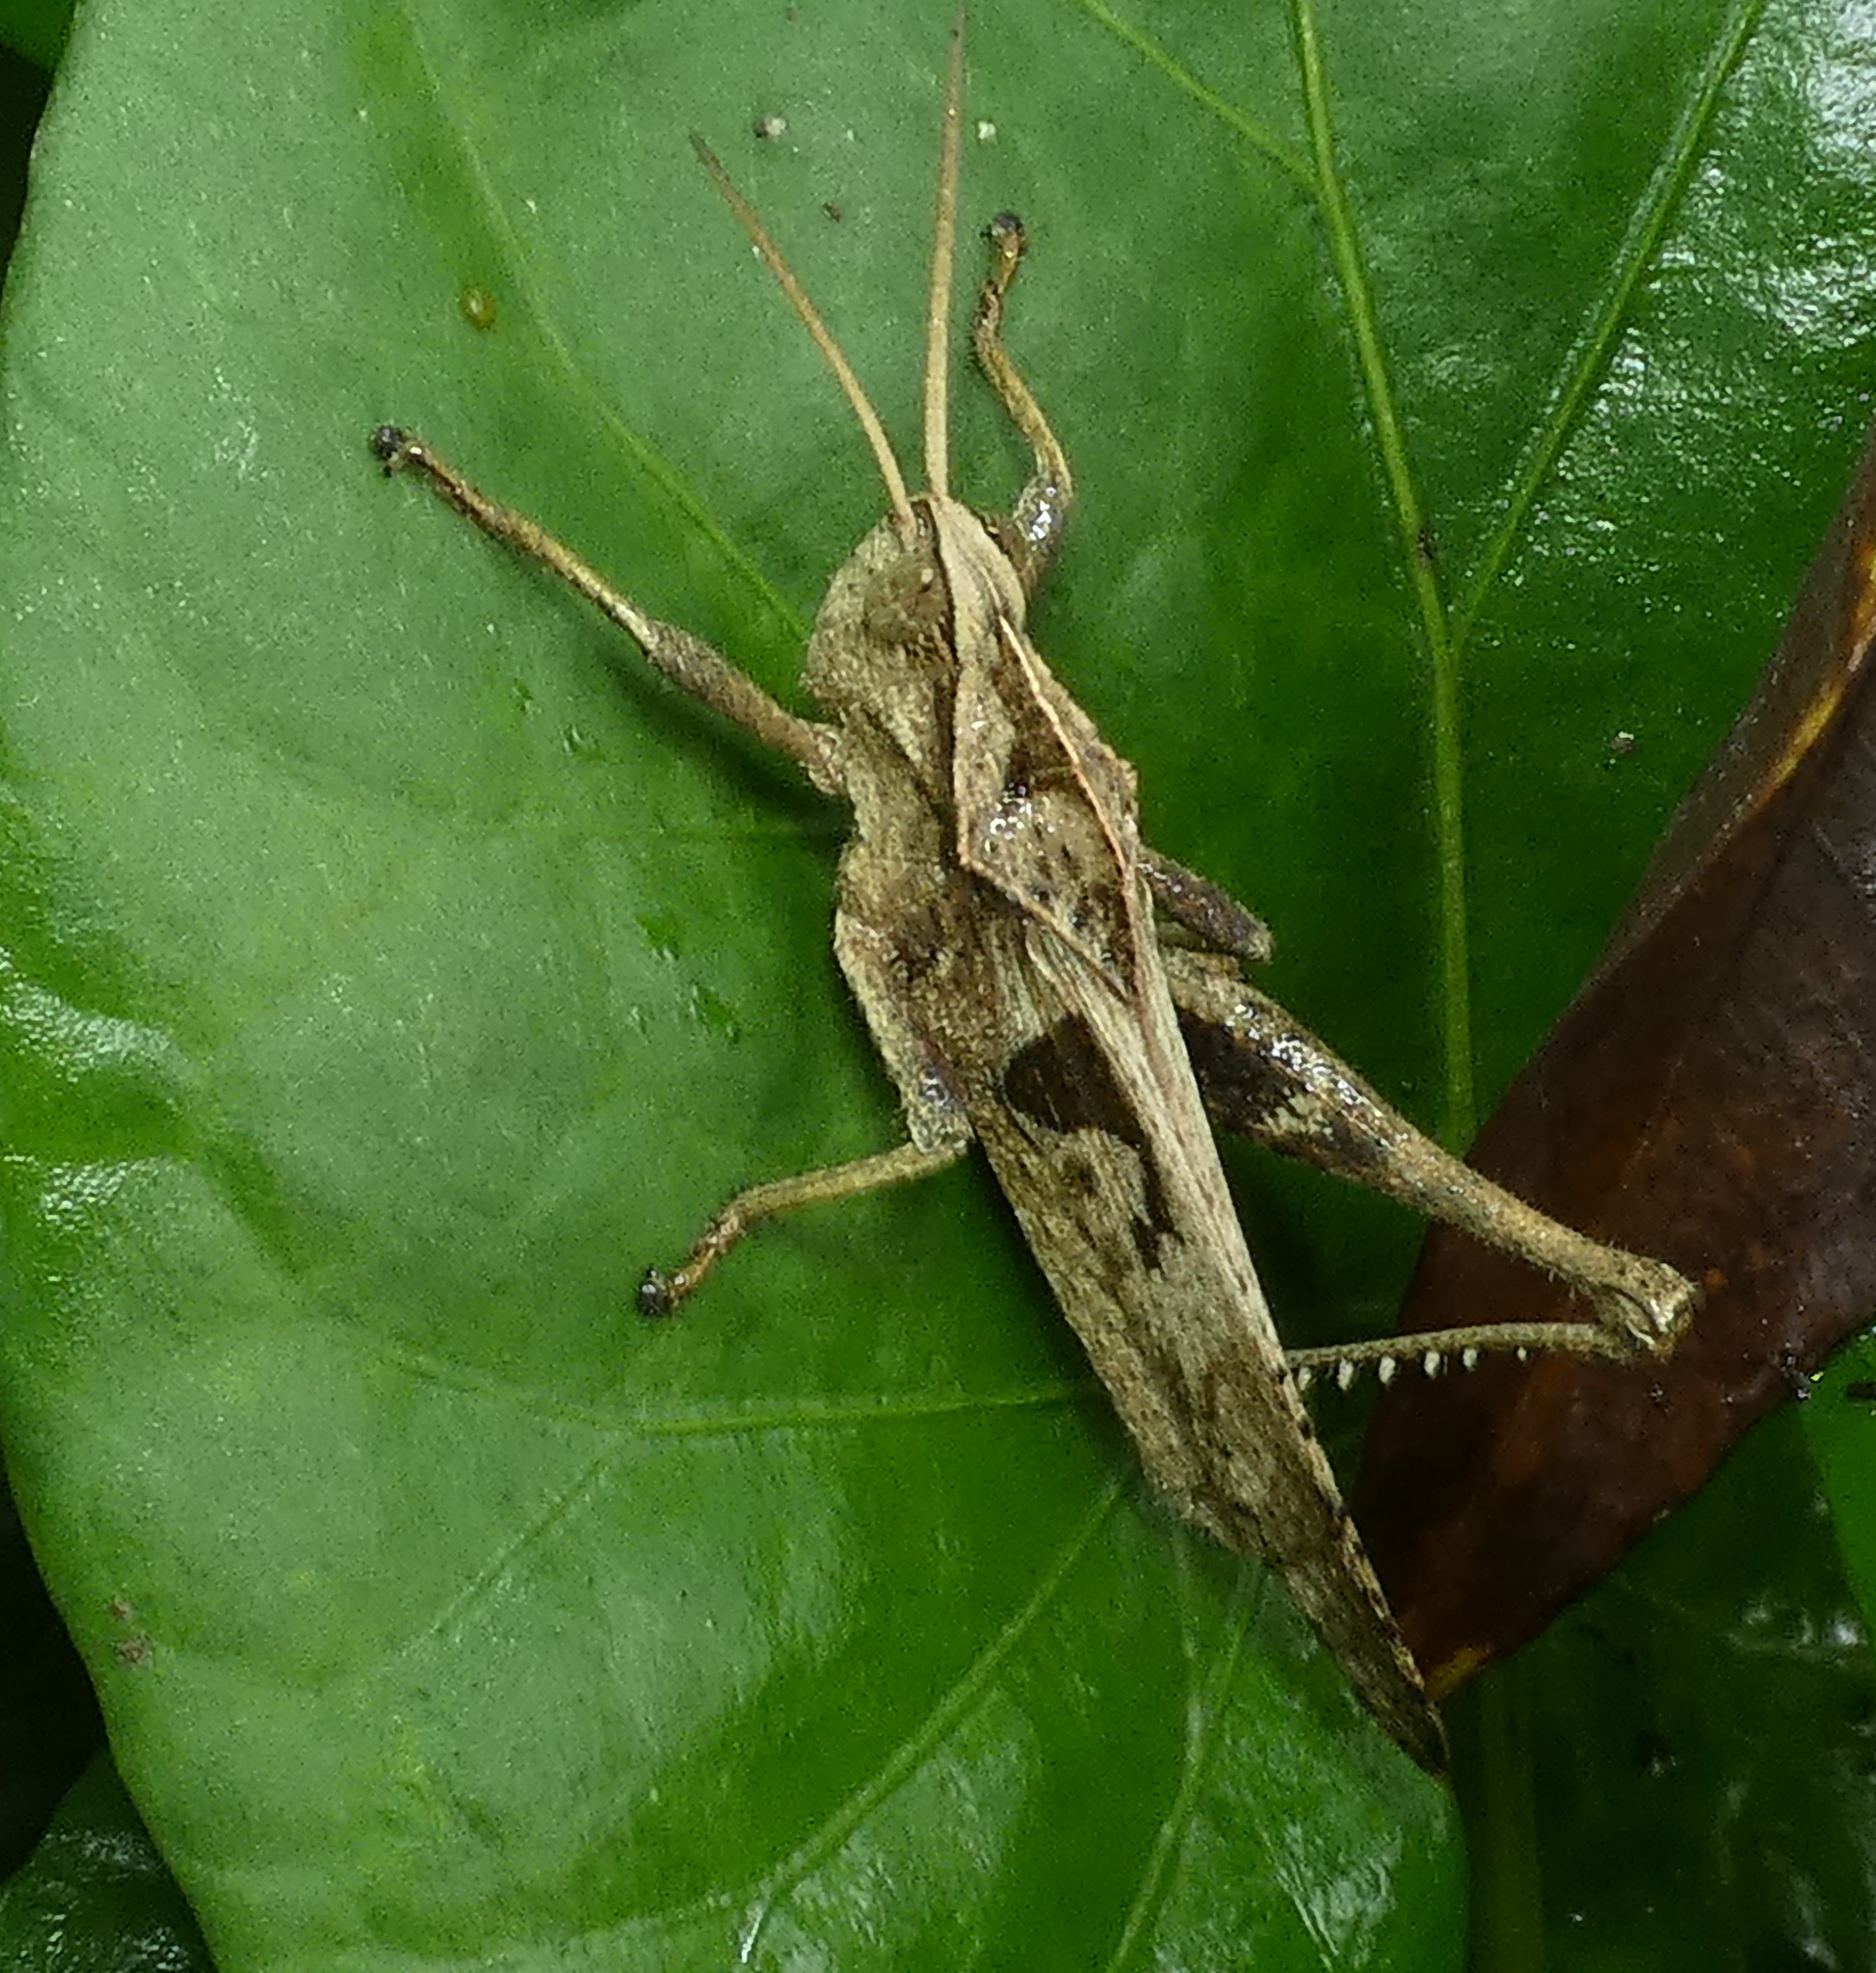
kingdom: Animalia
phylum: Arthropoda
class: Insecta
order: Orthoptera
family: Romaleidae
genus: Xyleus
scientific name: Xyleus discoideus
